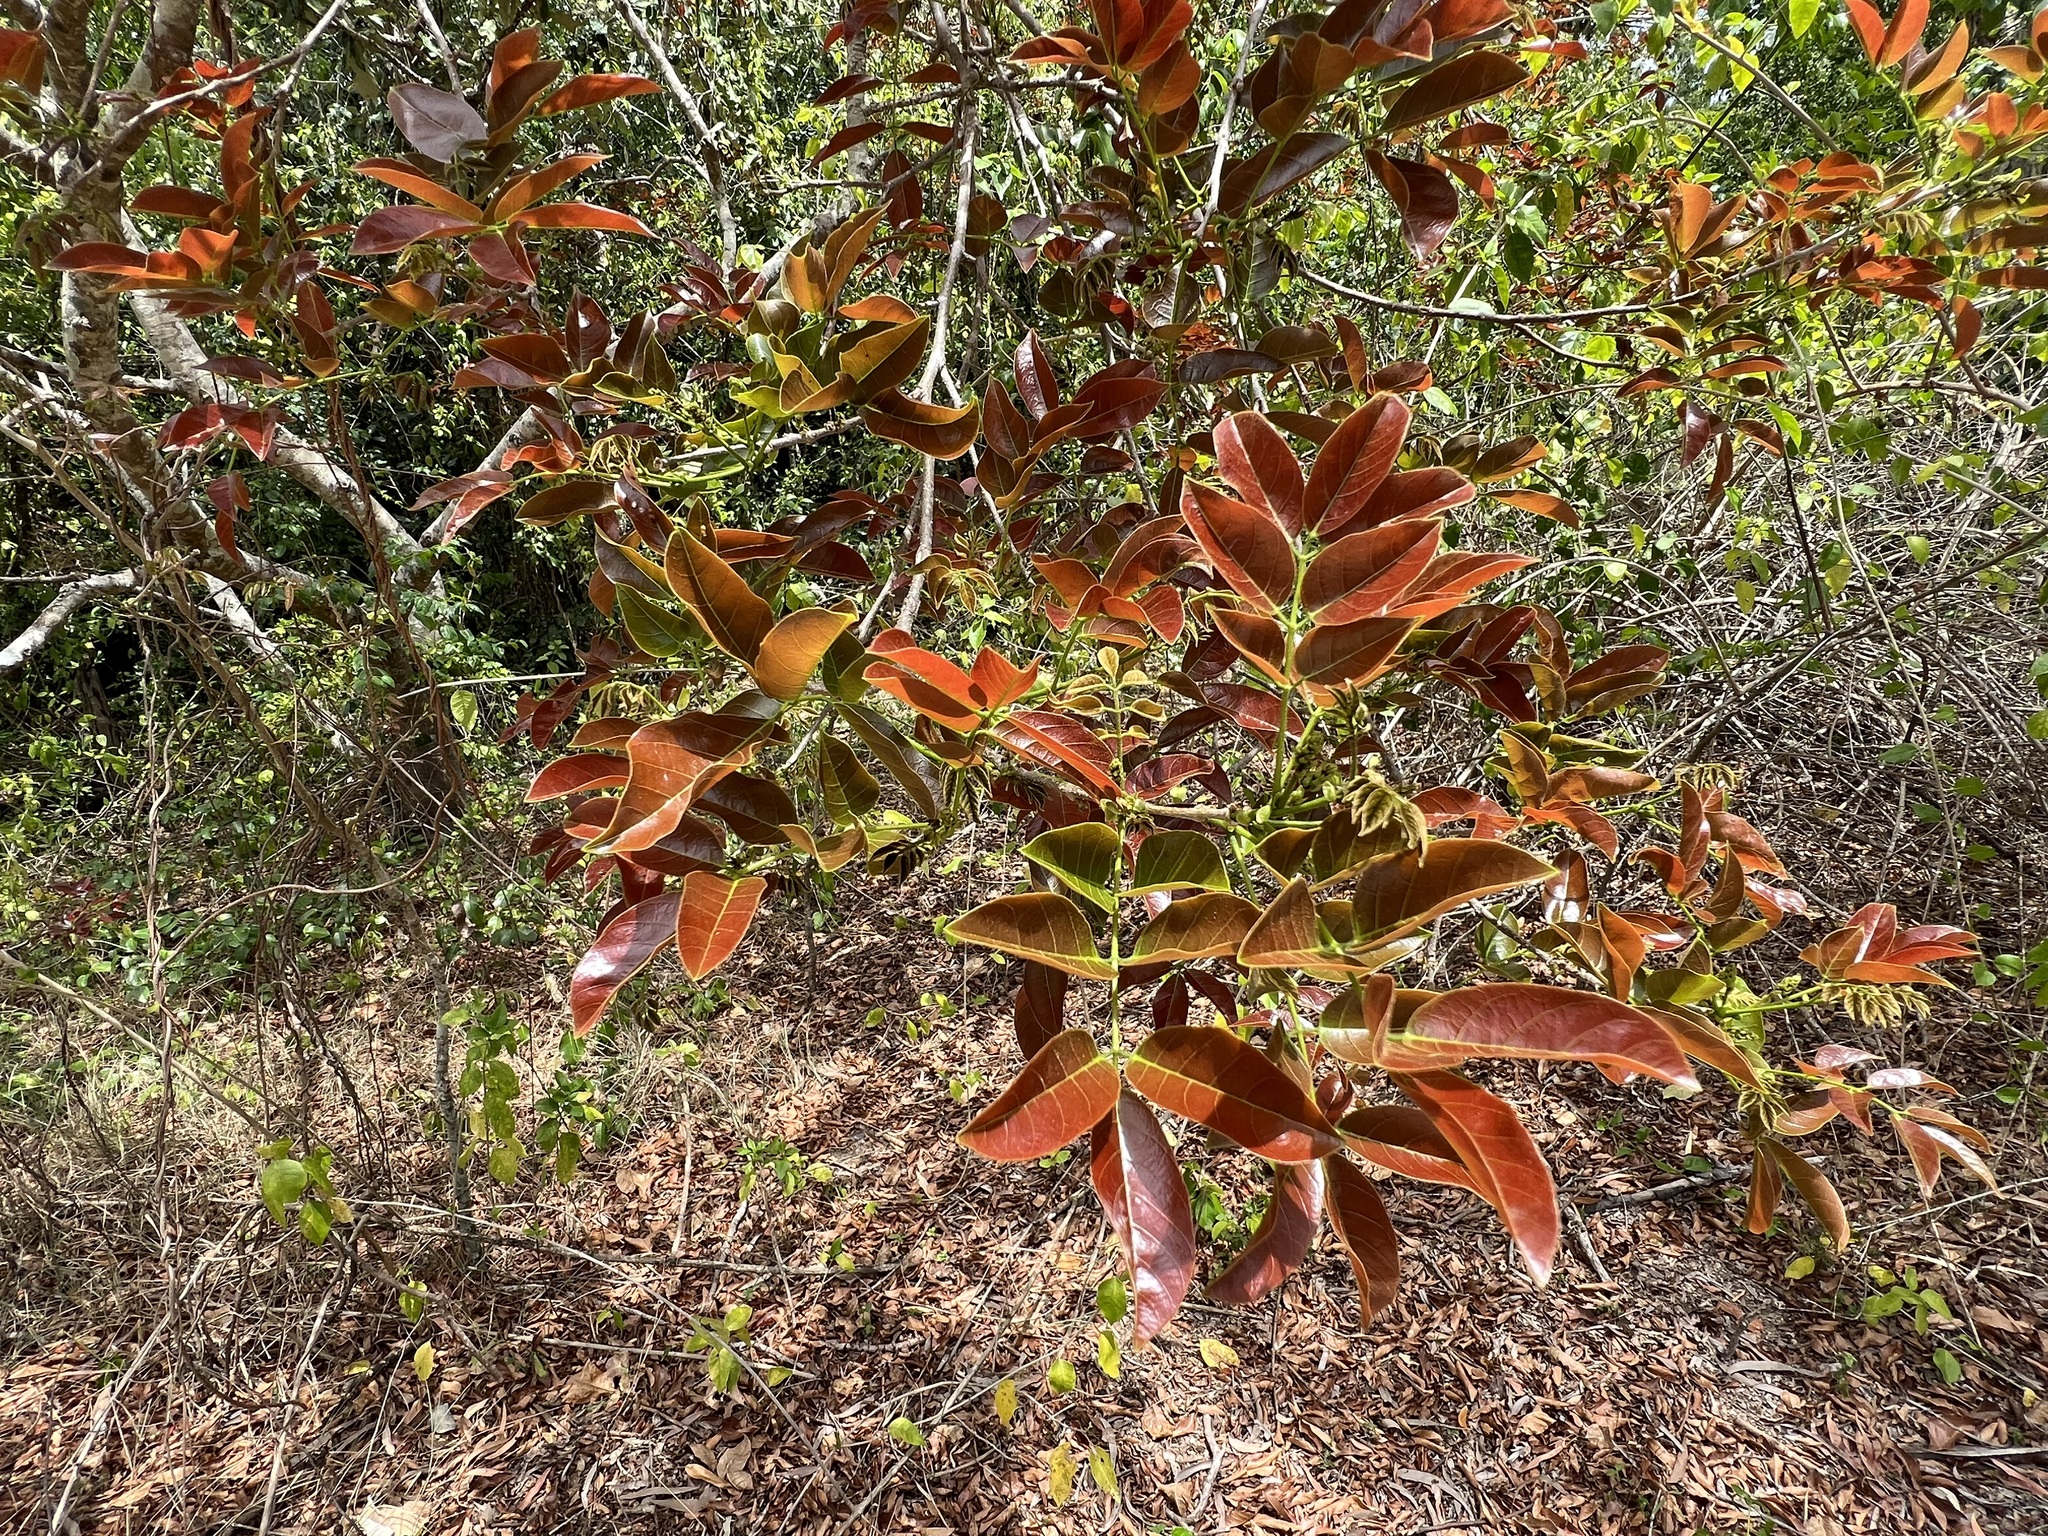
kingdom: Plantae
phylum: Tracheophyta
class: Magnoliopsida
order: Fabales
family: Fabaceae
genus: Pongamia
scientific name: Pongamia pinnata
